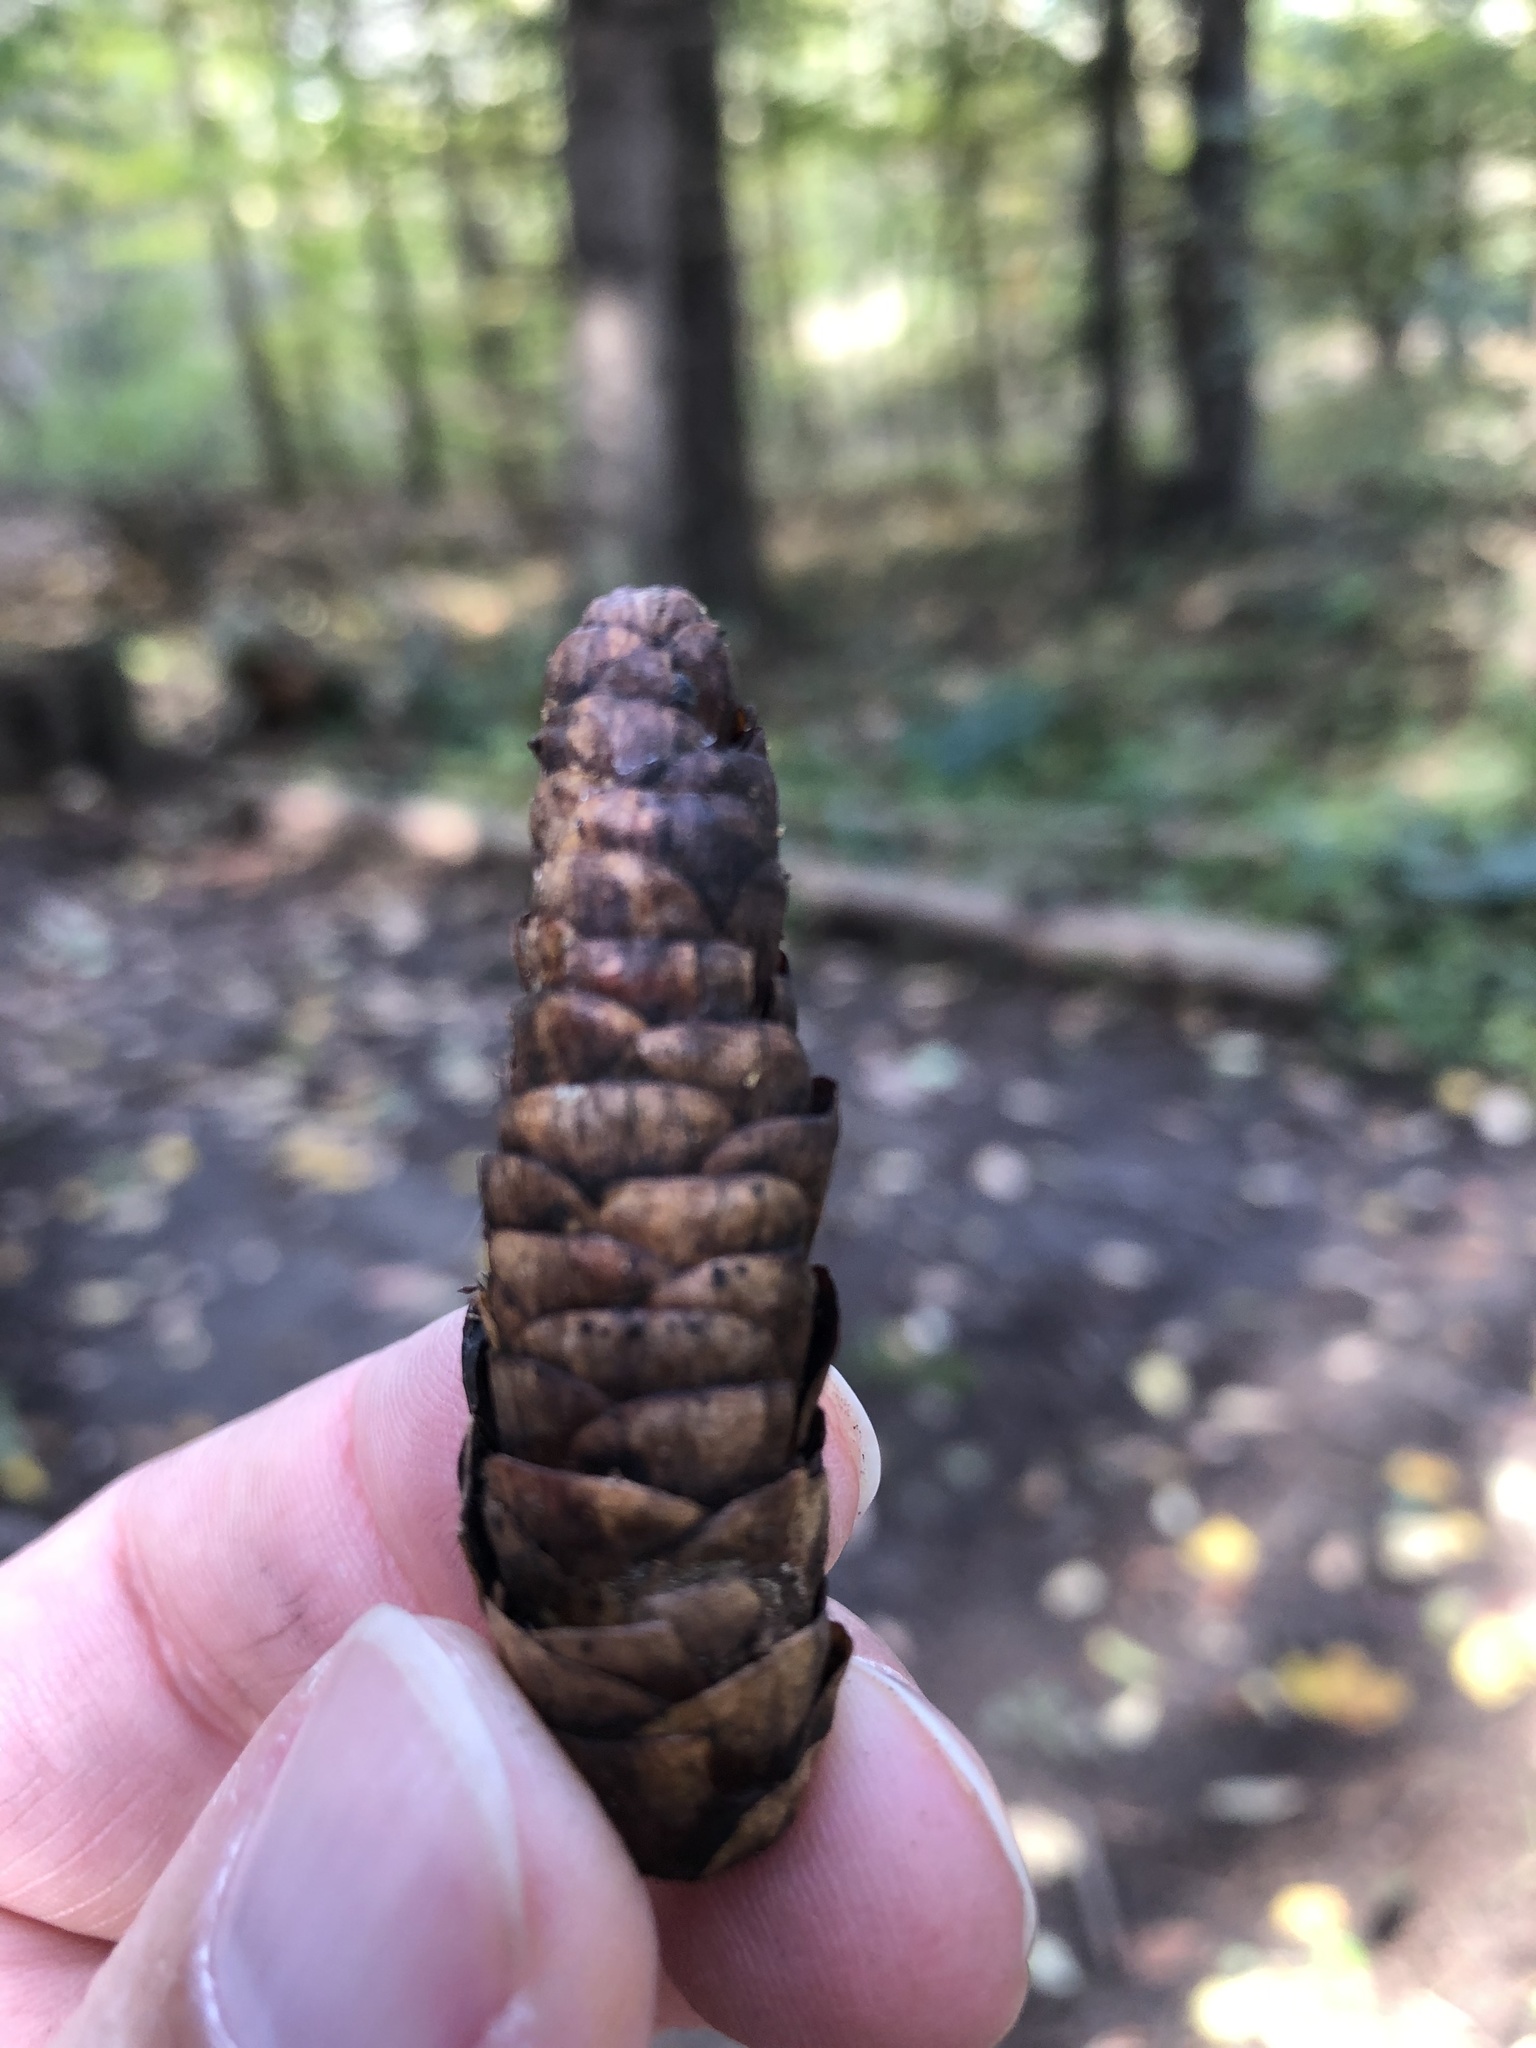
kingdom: Plantae
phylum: Tracheophyta
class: Pinopsida
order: Pinales
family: Pinaceae
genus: Picea
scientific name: Picea glauca
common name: White spruce
